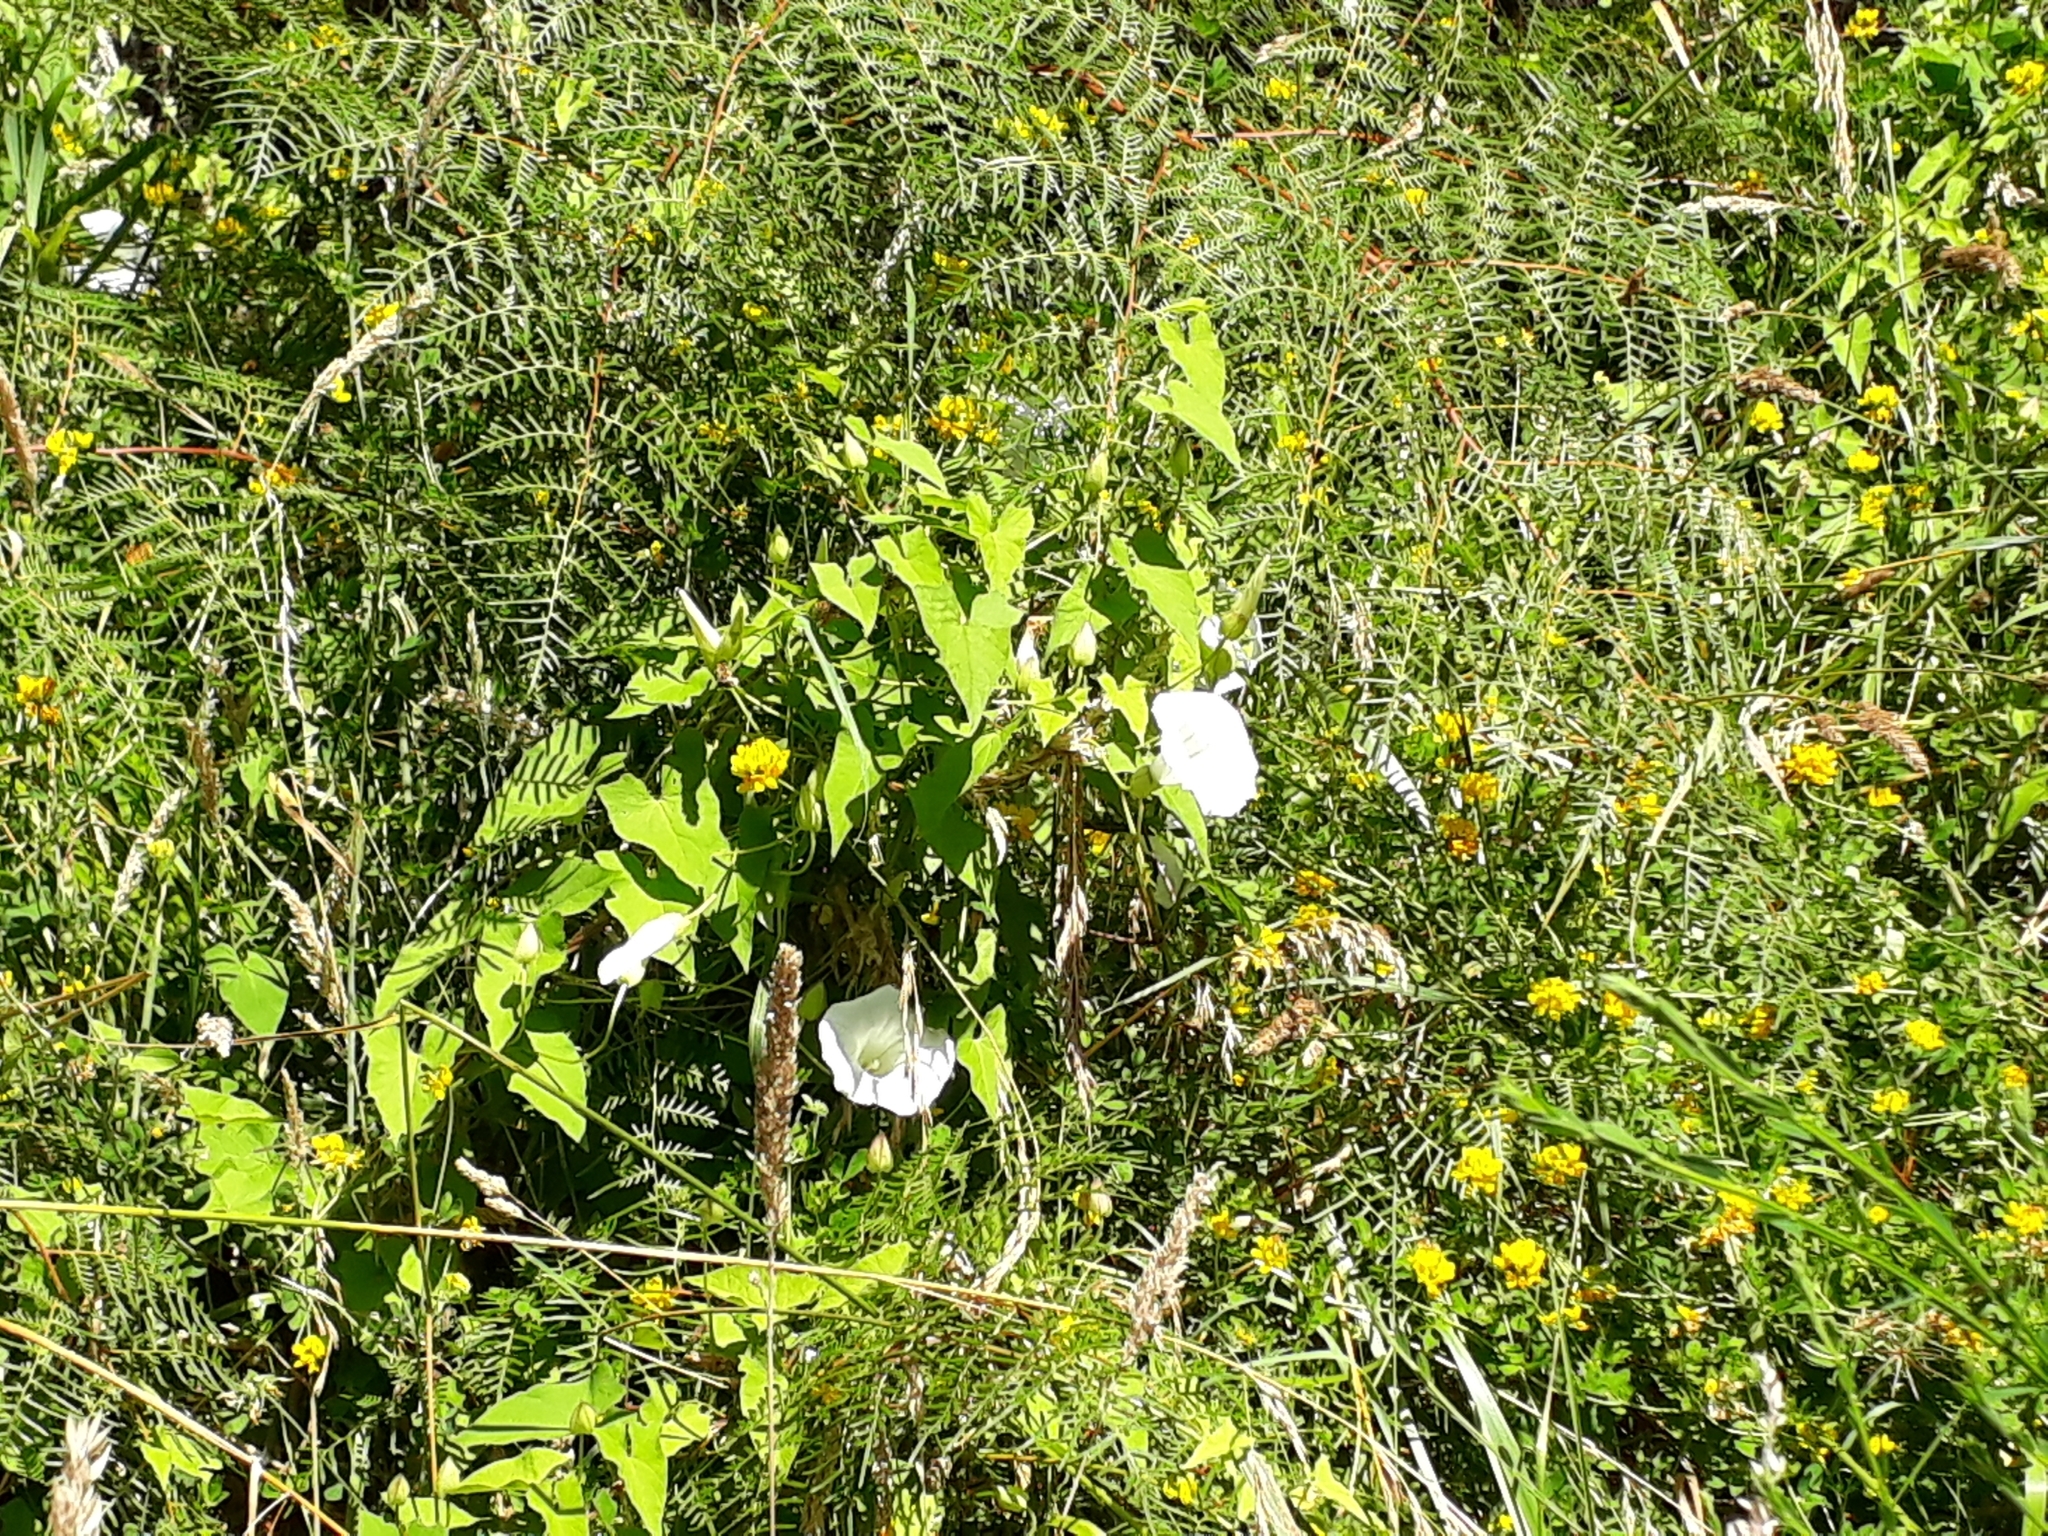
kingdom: Plantae
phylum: Tracheophyta
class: Magnoliopsida
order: Solanales
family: Convolvulaceae
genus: Calystegia
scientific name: Calystegia silvatica
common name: Large bindweed
